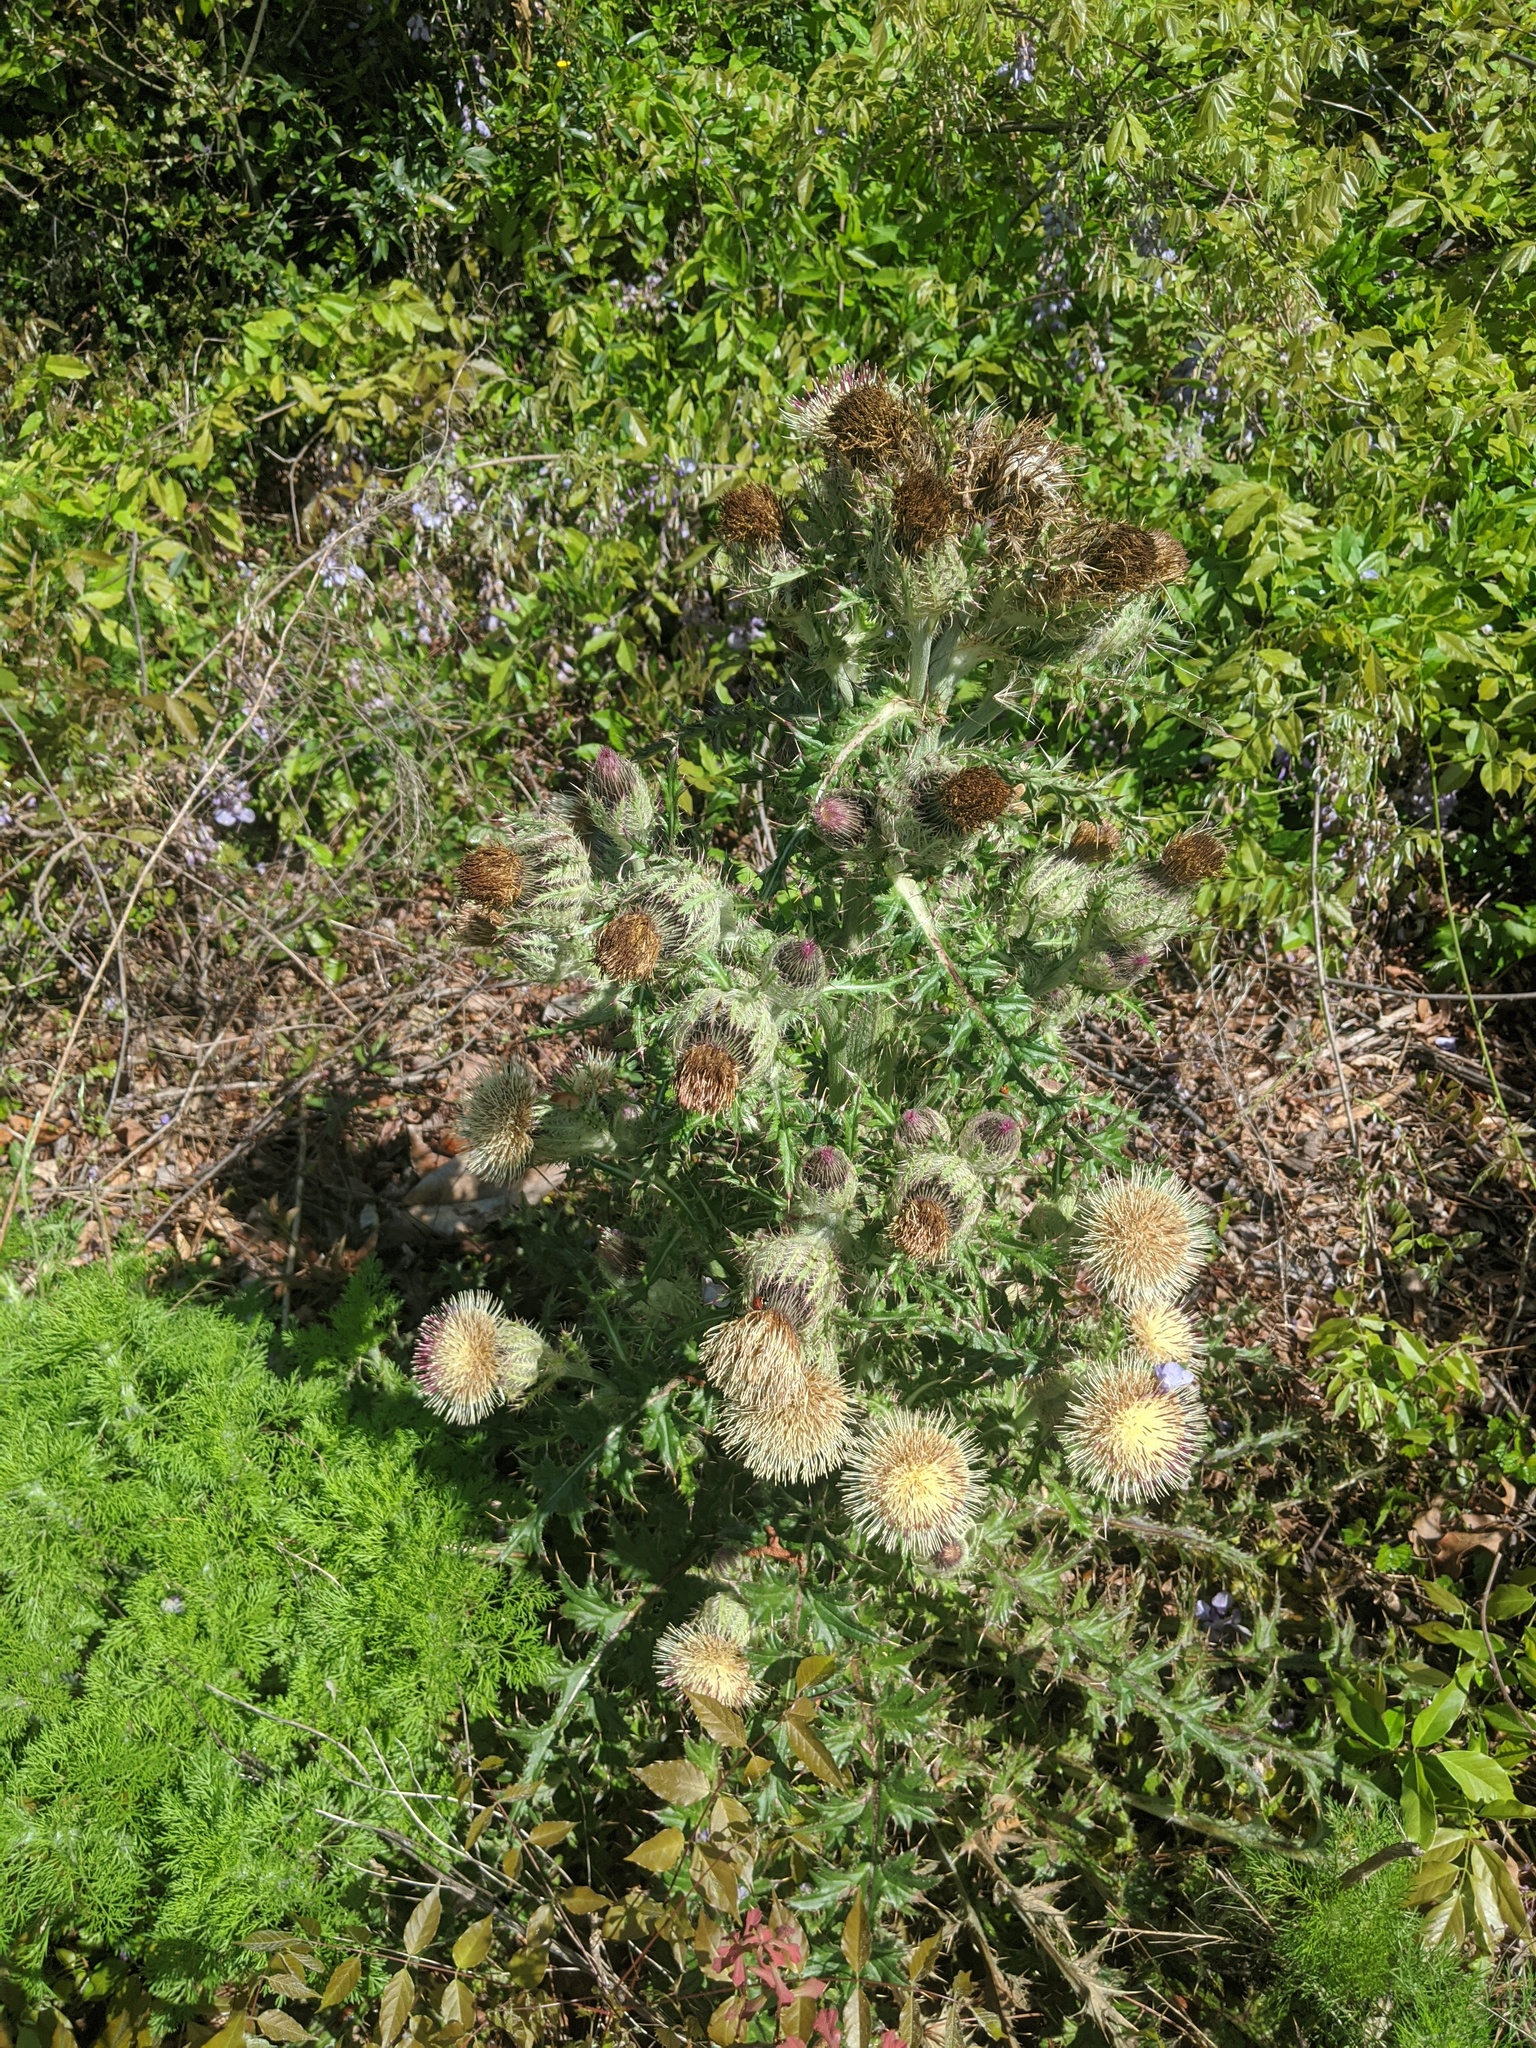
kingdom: Plantae
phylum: Tracheophyta
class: Magnoliopsida
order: Asterales
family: Asteraceae
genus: Cirsium
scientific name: Cirsium horridulum
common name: Bristly thistle
